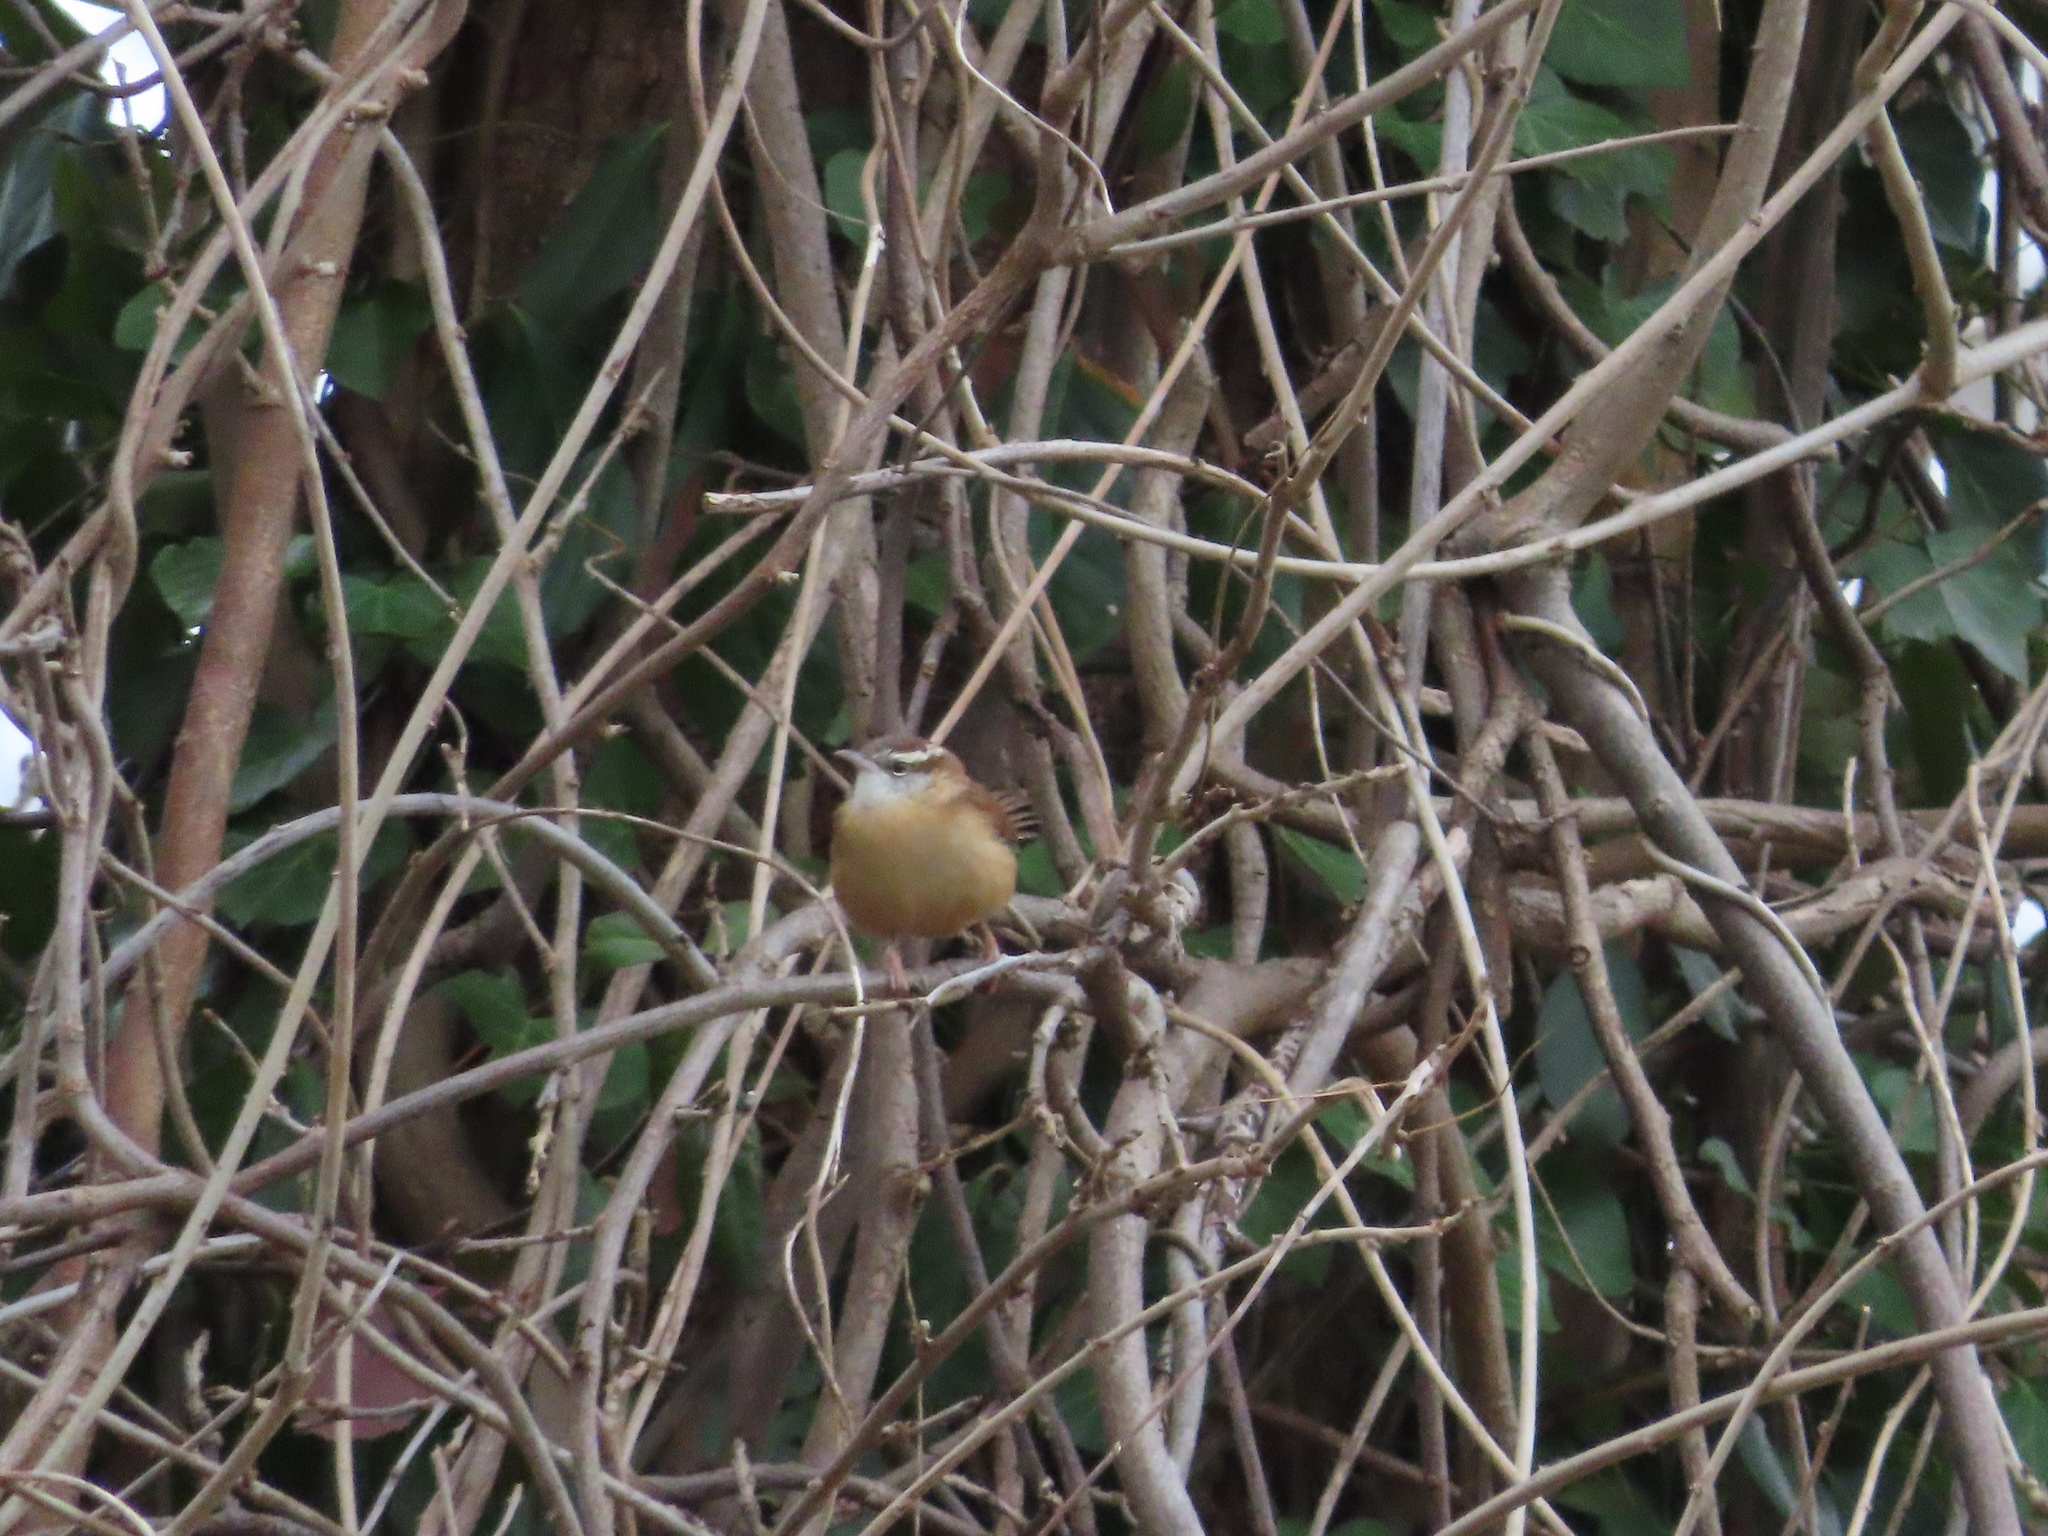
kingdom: Animalia
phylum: Chordata
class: Aves
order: Passeriformes
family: Troglodytidae
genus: Thryothorus
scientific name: Thryothorus ludovicianus
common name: Carolina wren
